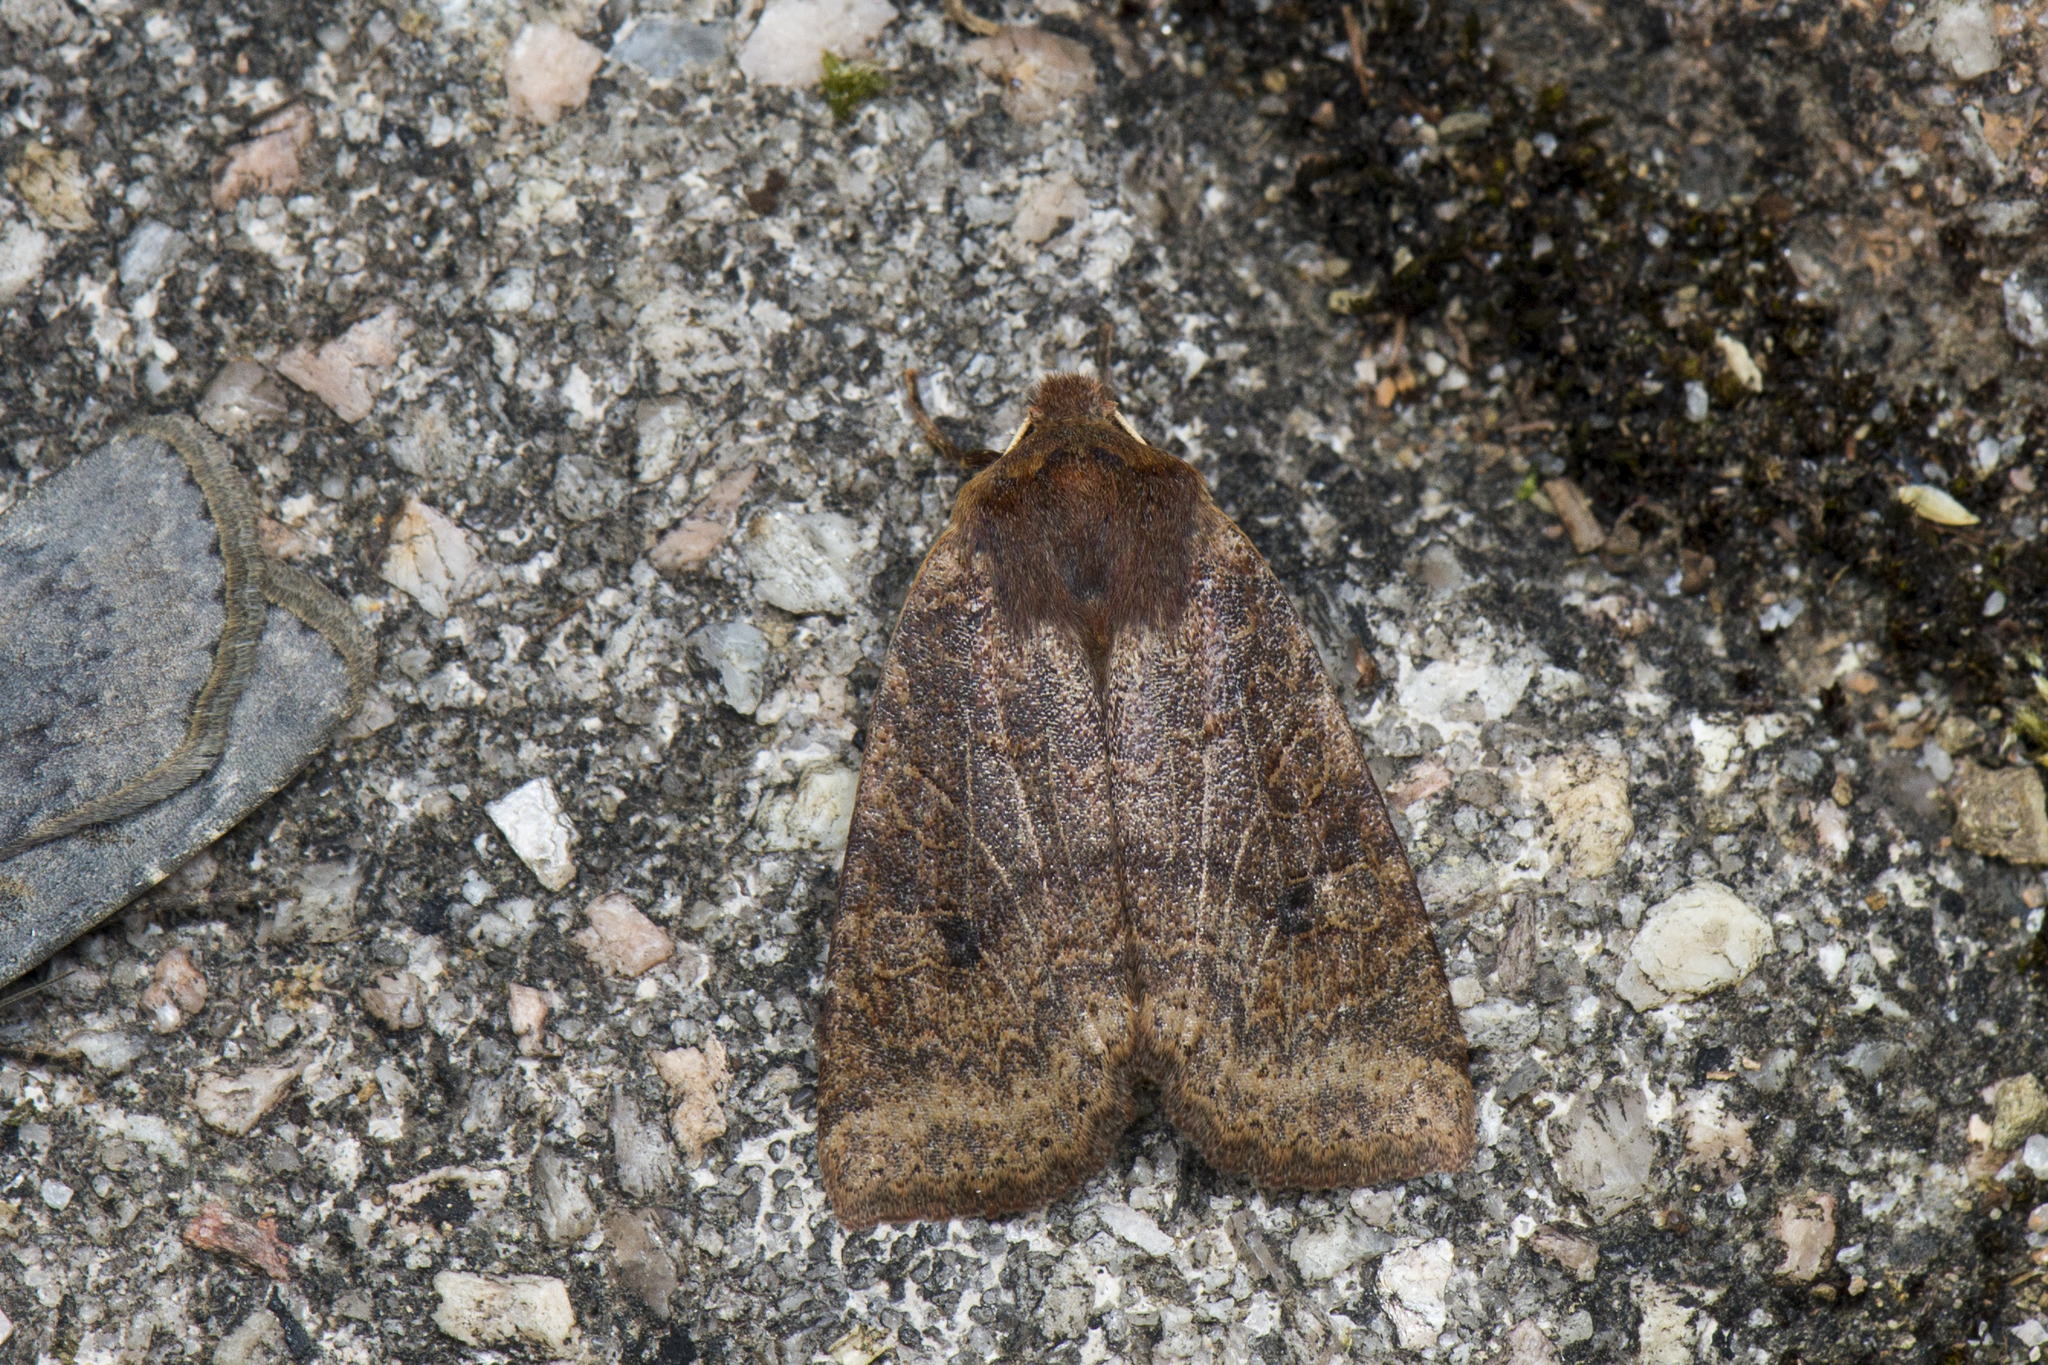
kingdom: Animalia
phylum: Arthropoda
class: Insecta
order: Lepidoptera
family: Noctuidae
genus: Conistra
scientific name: Conistra takasago
